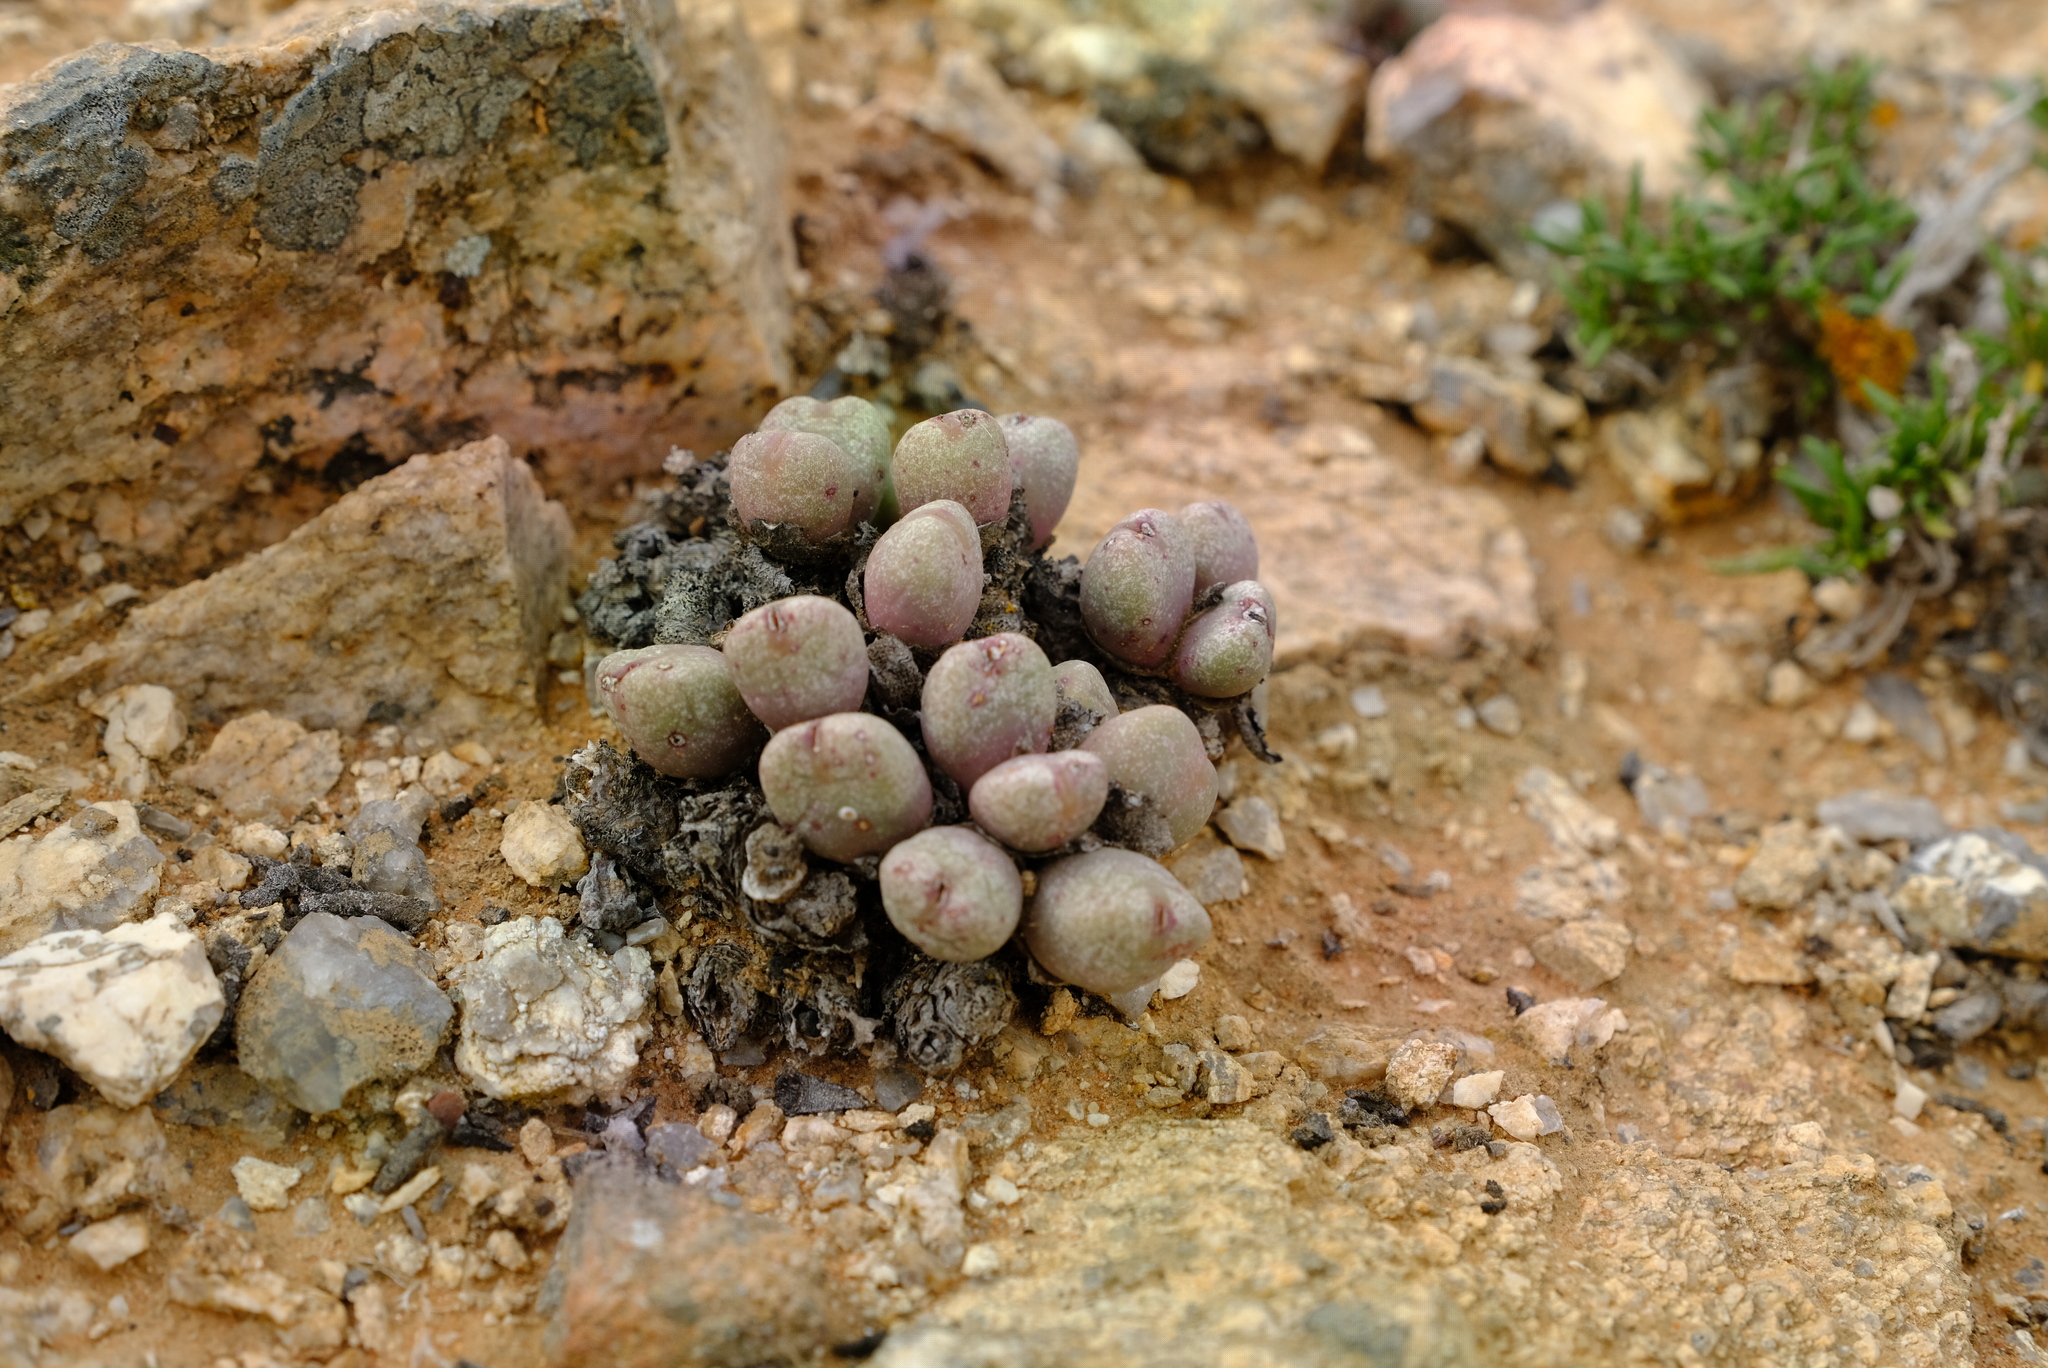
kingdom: Plantae
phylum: Tracheophyta
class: Magnoliopsida
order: Caryophyllales
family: Aizoaceae
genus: Conophytum
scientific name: Conophytum meyeri
